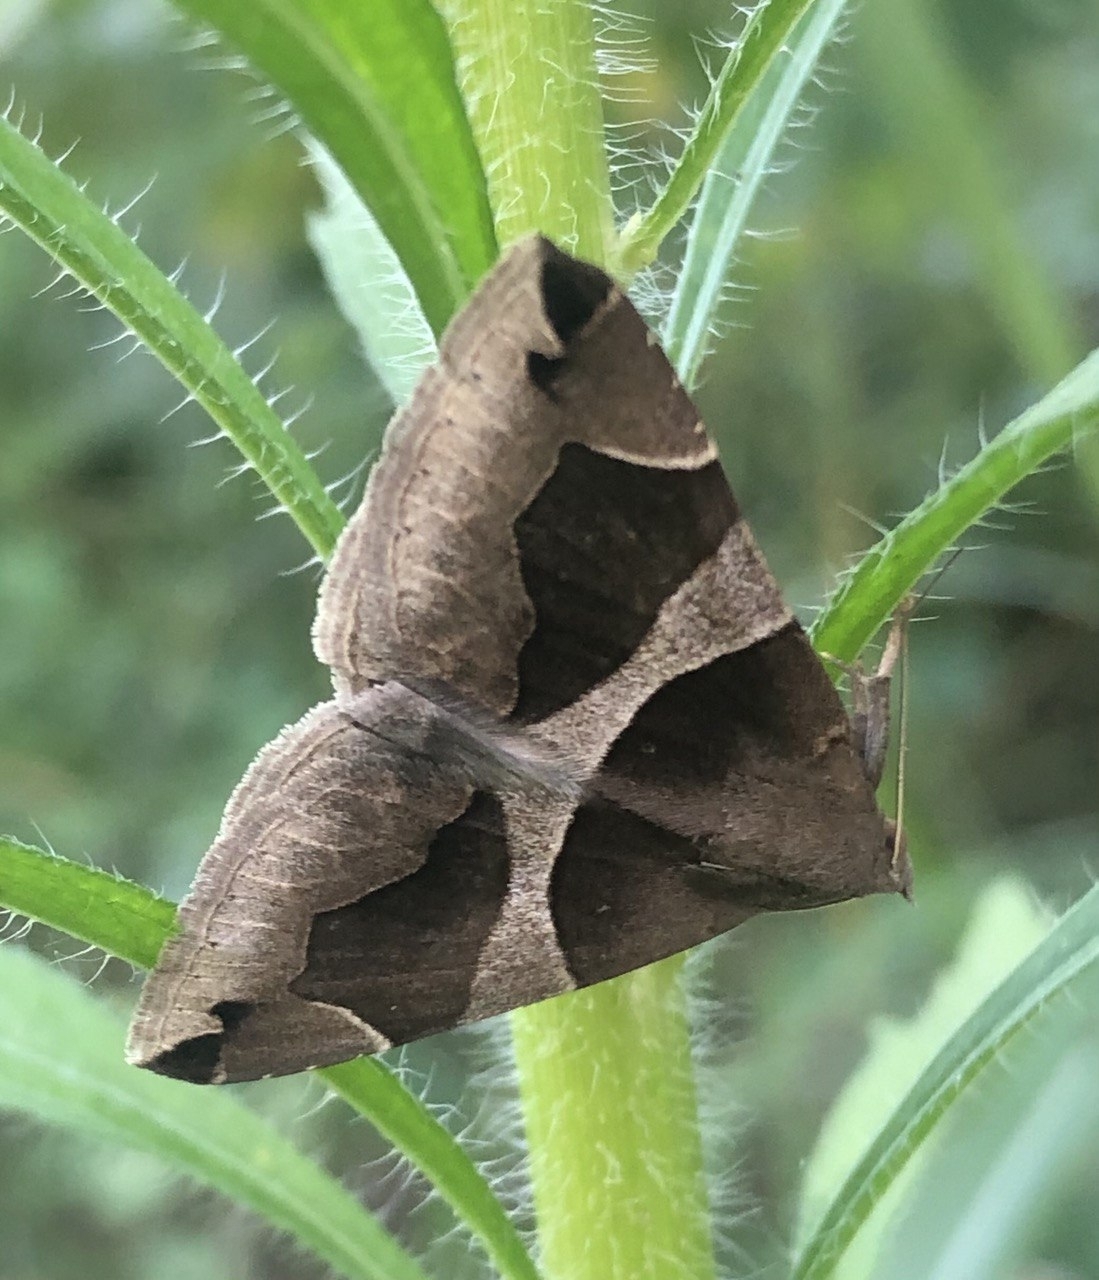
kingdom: Animalia
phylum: Arthropoda
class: Insecta
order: Lepidoptera
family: Erebidae
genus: Dysgonia
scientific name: Dysgonia algira
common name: Passenger
